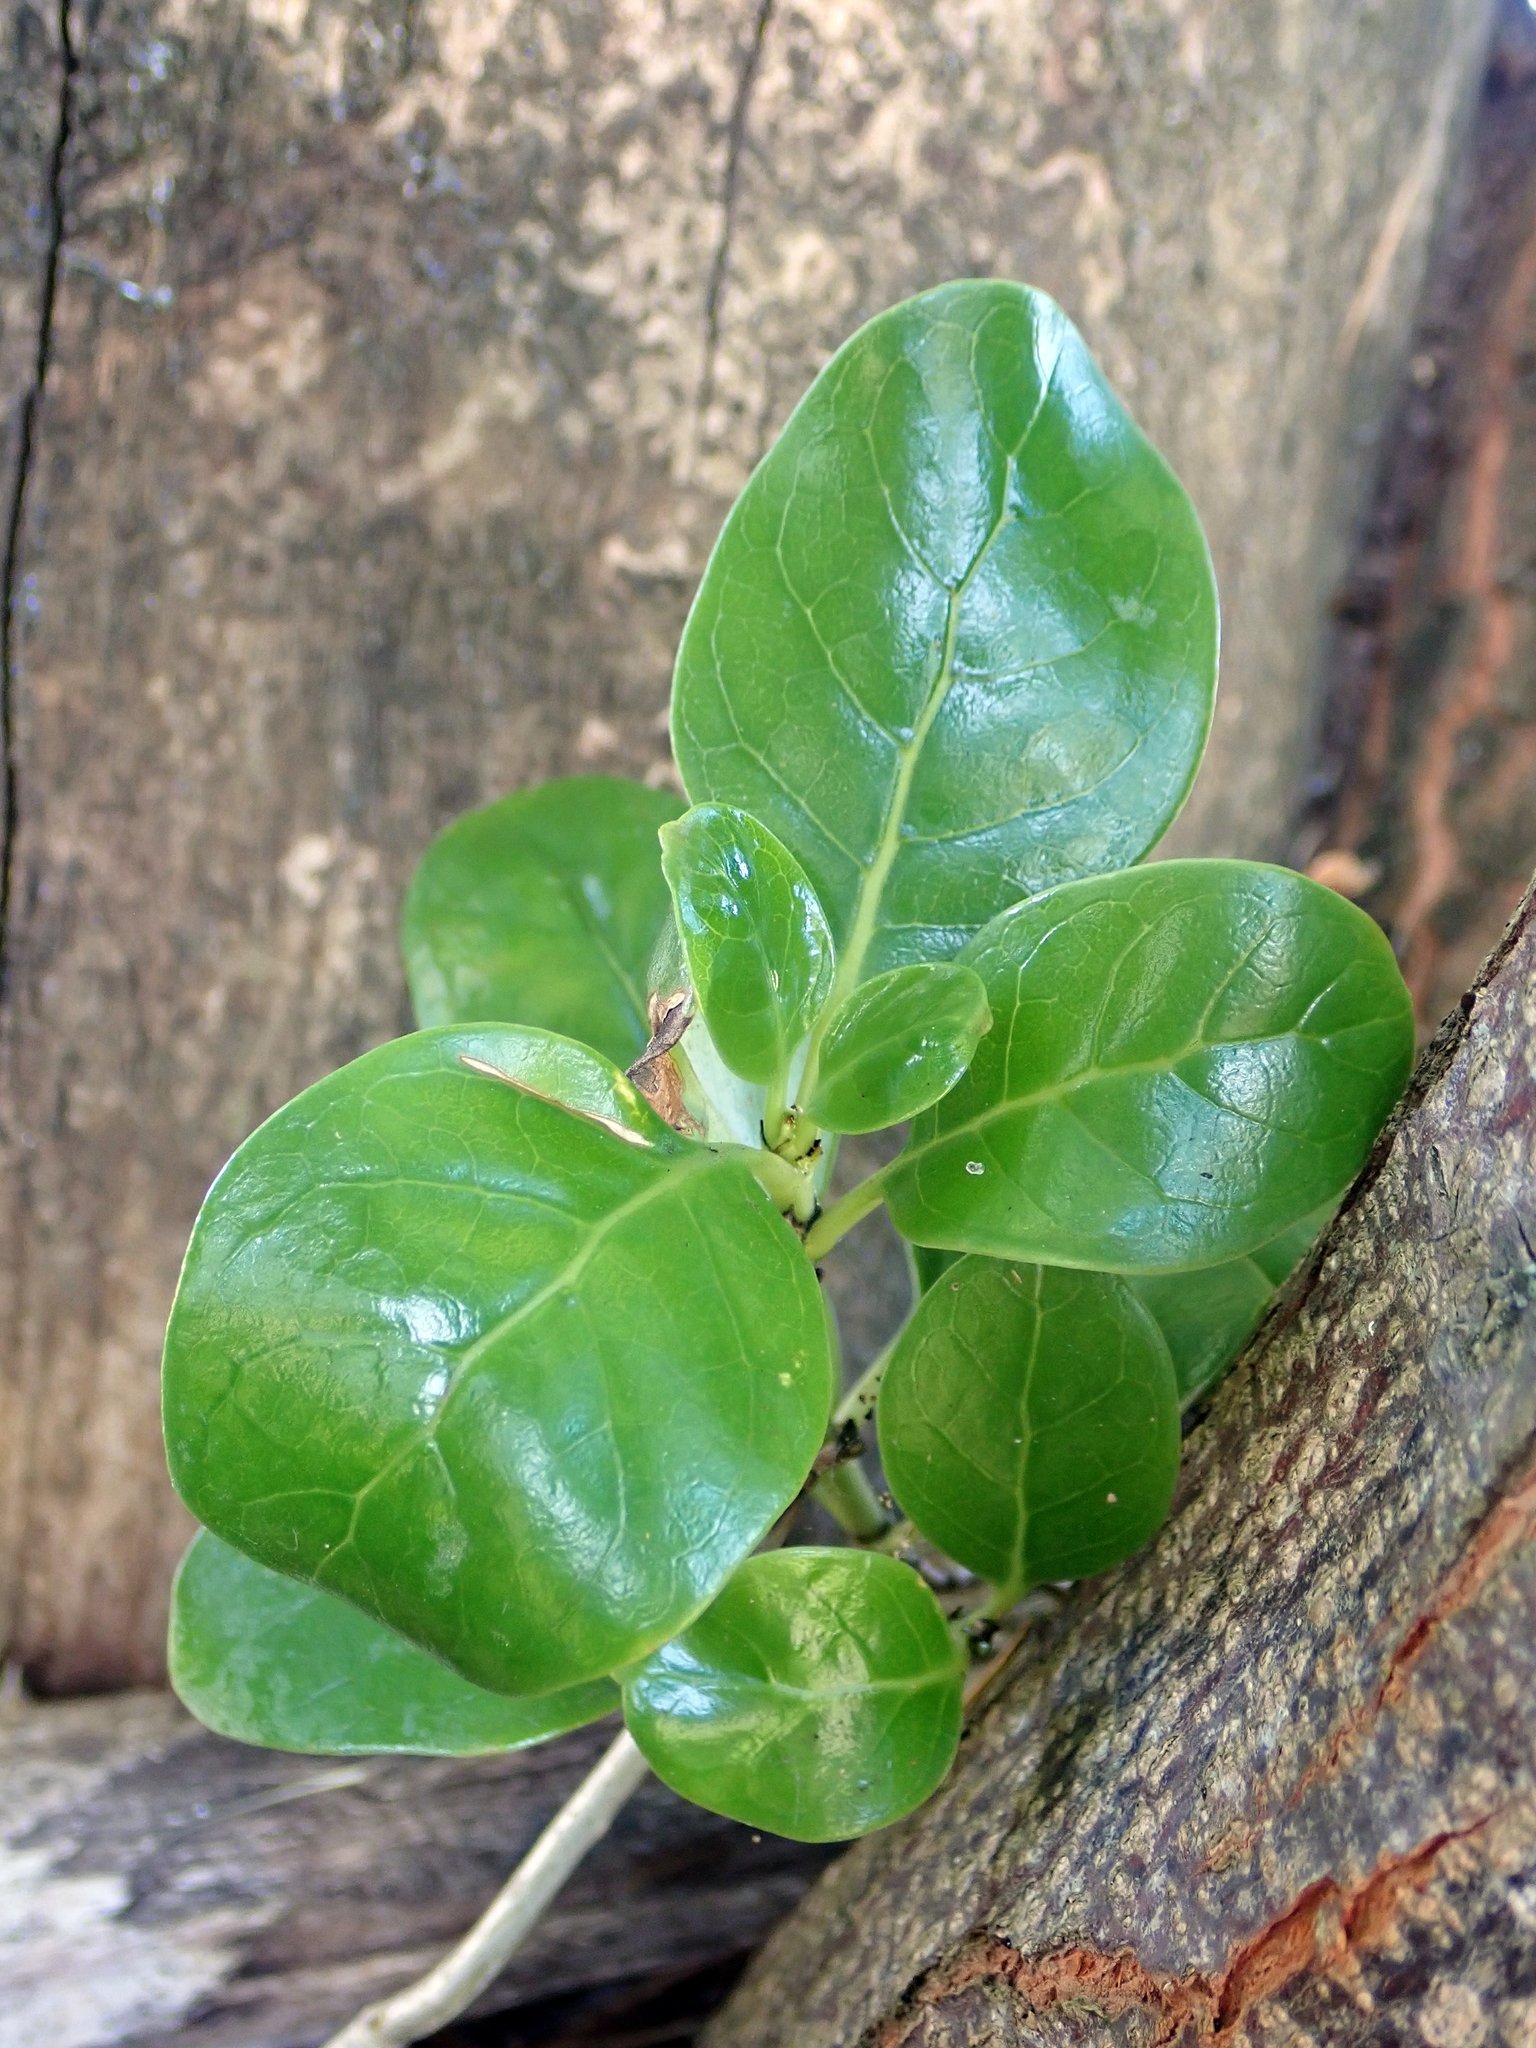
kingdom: Plantae
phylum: Tracheophyta
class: Magnoliopsida
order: Gentianales
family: Rubiaceae
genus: Coprosma
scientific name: Coprosma repens
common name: Tree bedstraw
